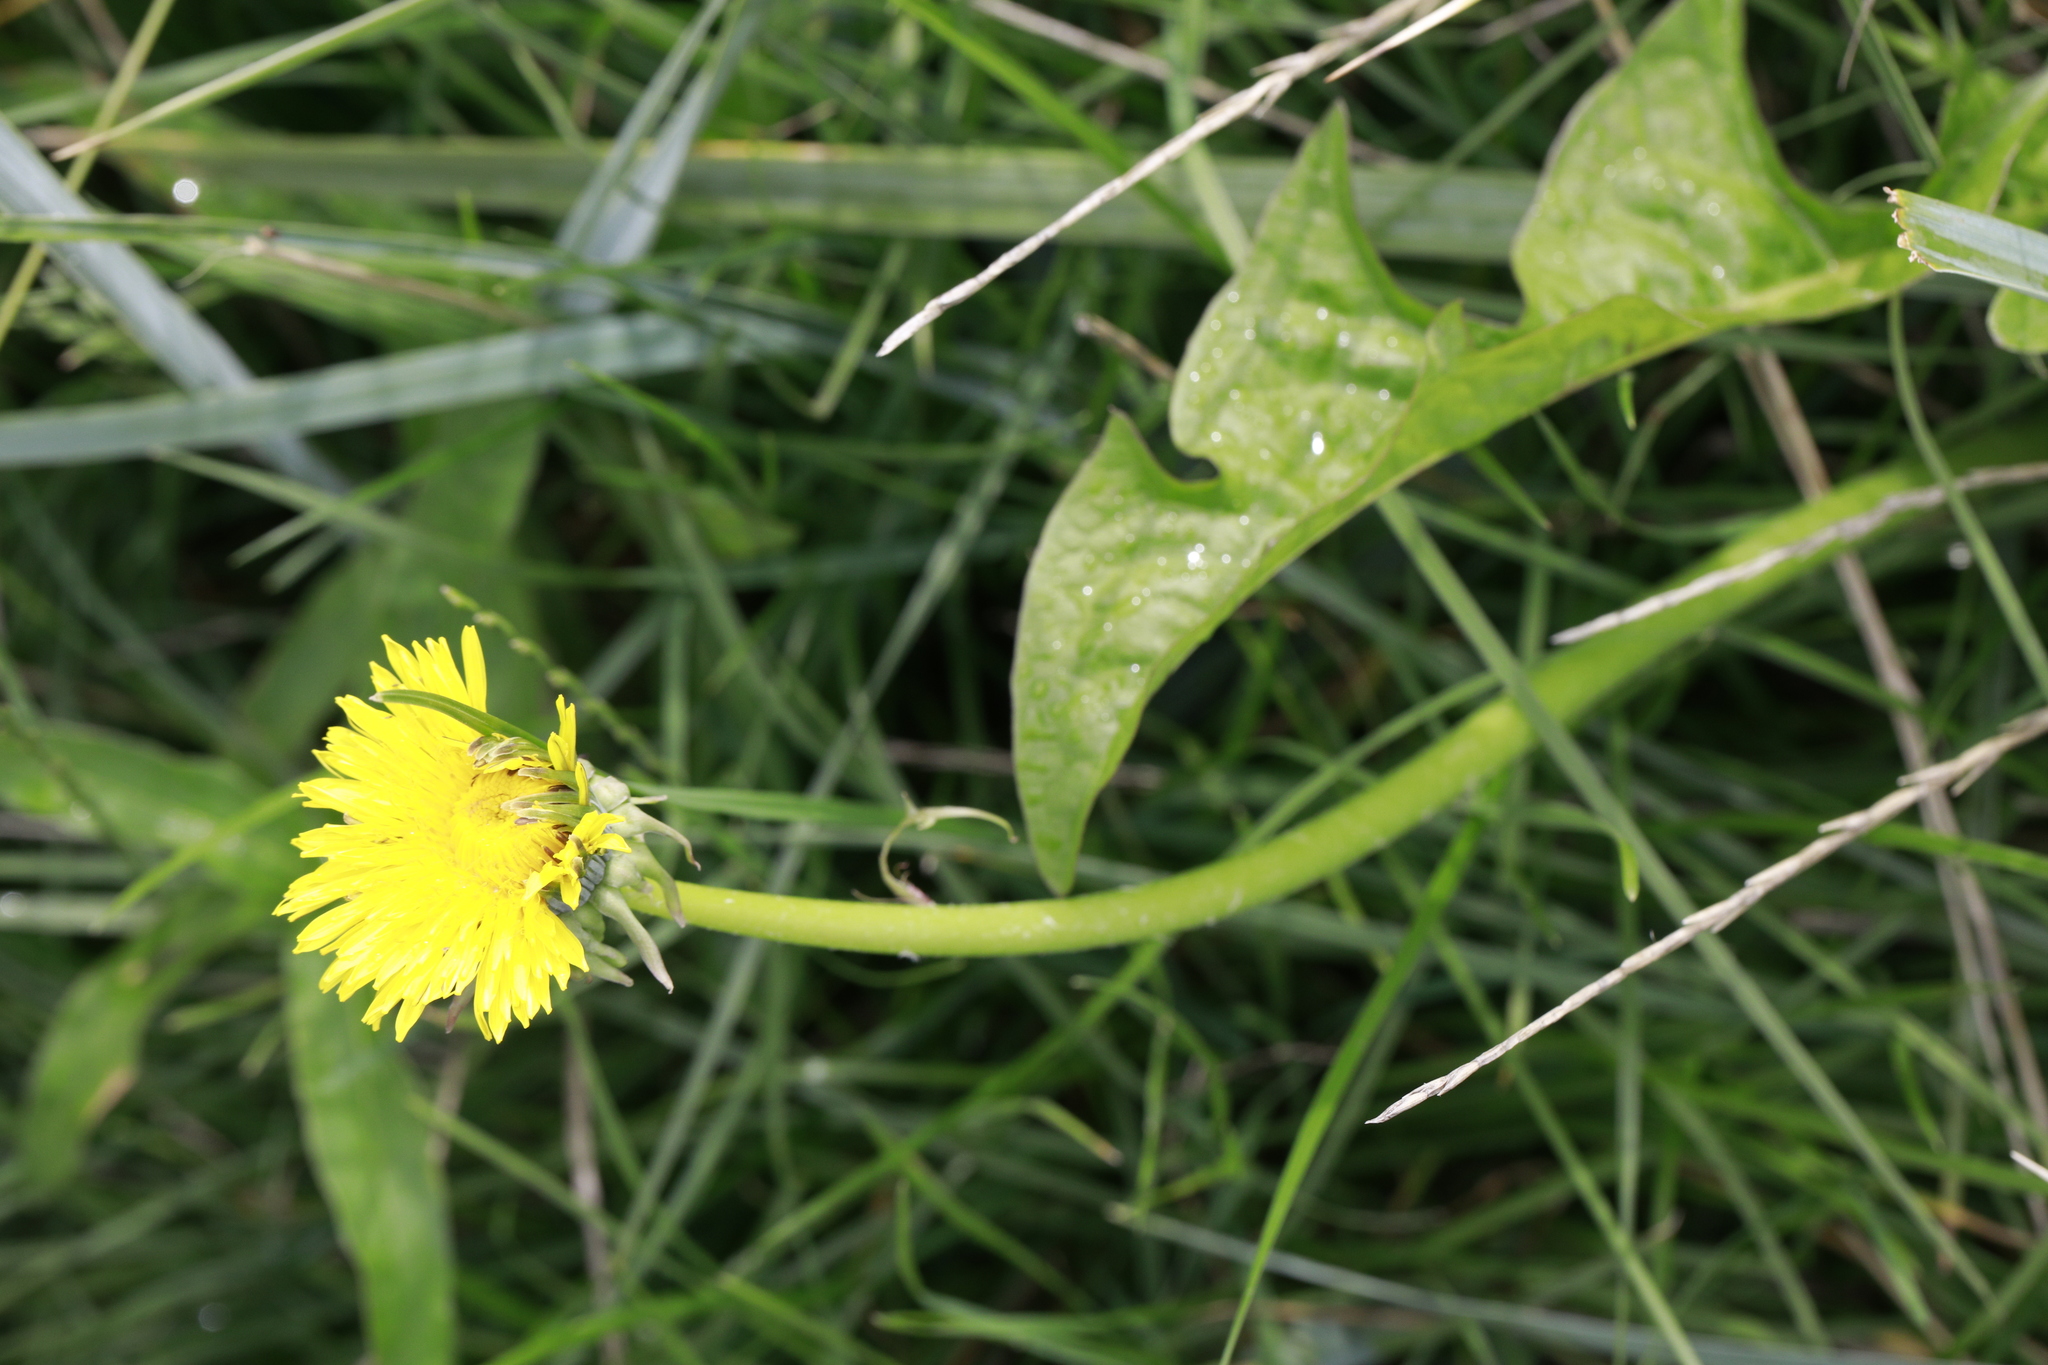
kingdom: Plantae
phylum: Tracheophyta
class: Magnoliopsida
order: Asterales
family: Asteraceae
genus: Taraxacum
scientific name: Taraxacum officinale
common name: Common dandelion
